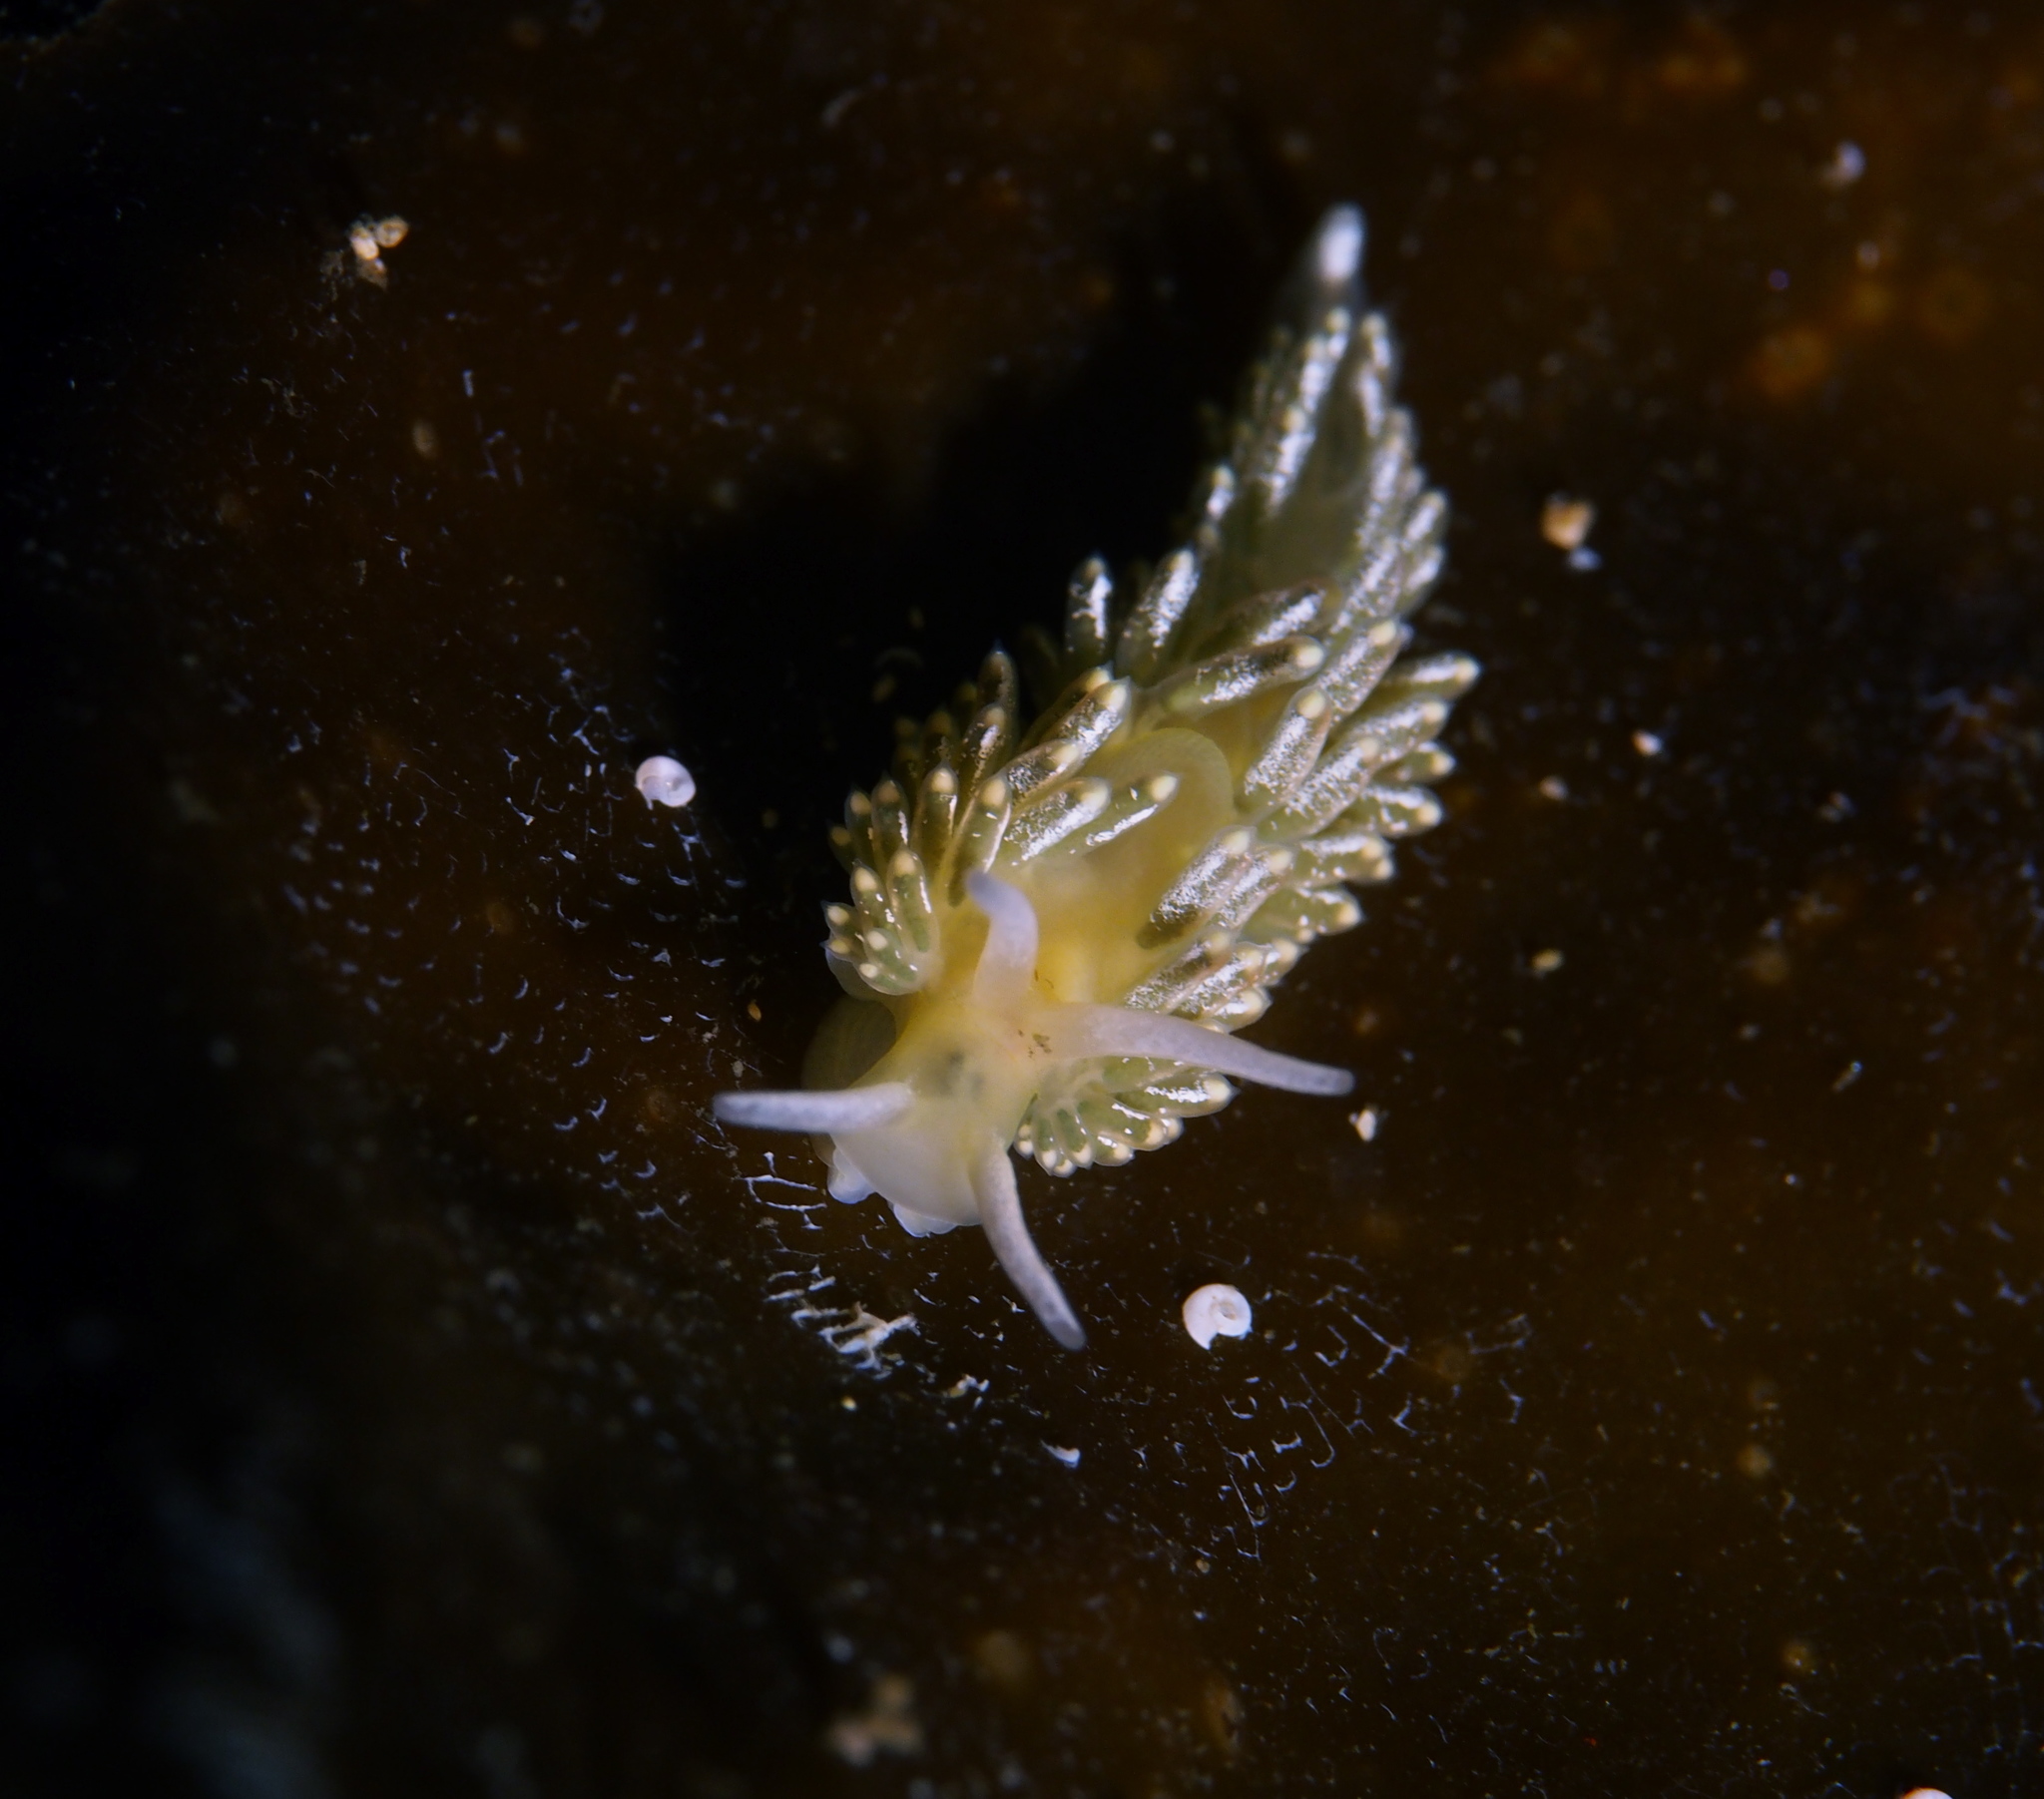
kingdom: Animalia
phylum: Mollusca
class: Gastropoda
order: Nudibranchia
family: Trinchesiidae
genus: Diaphoreolis
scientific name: Diaphoreolis viridis
